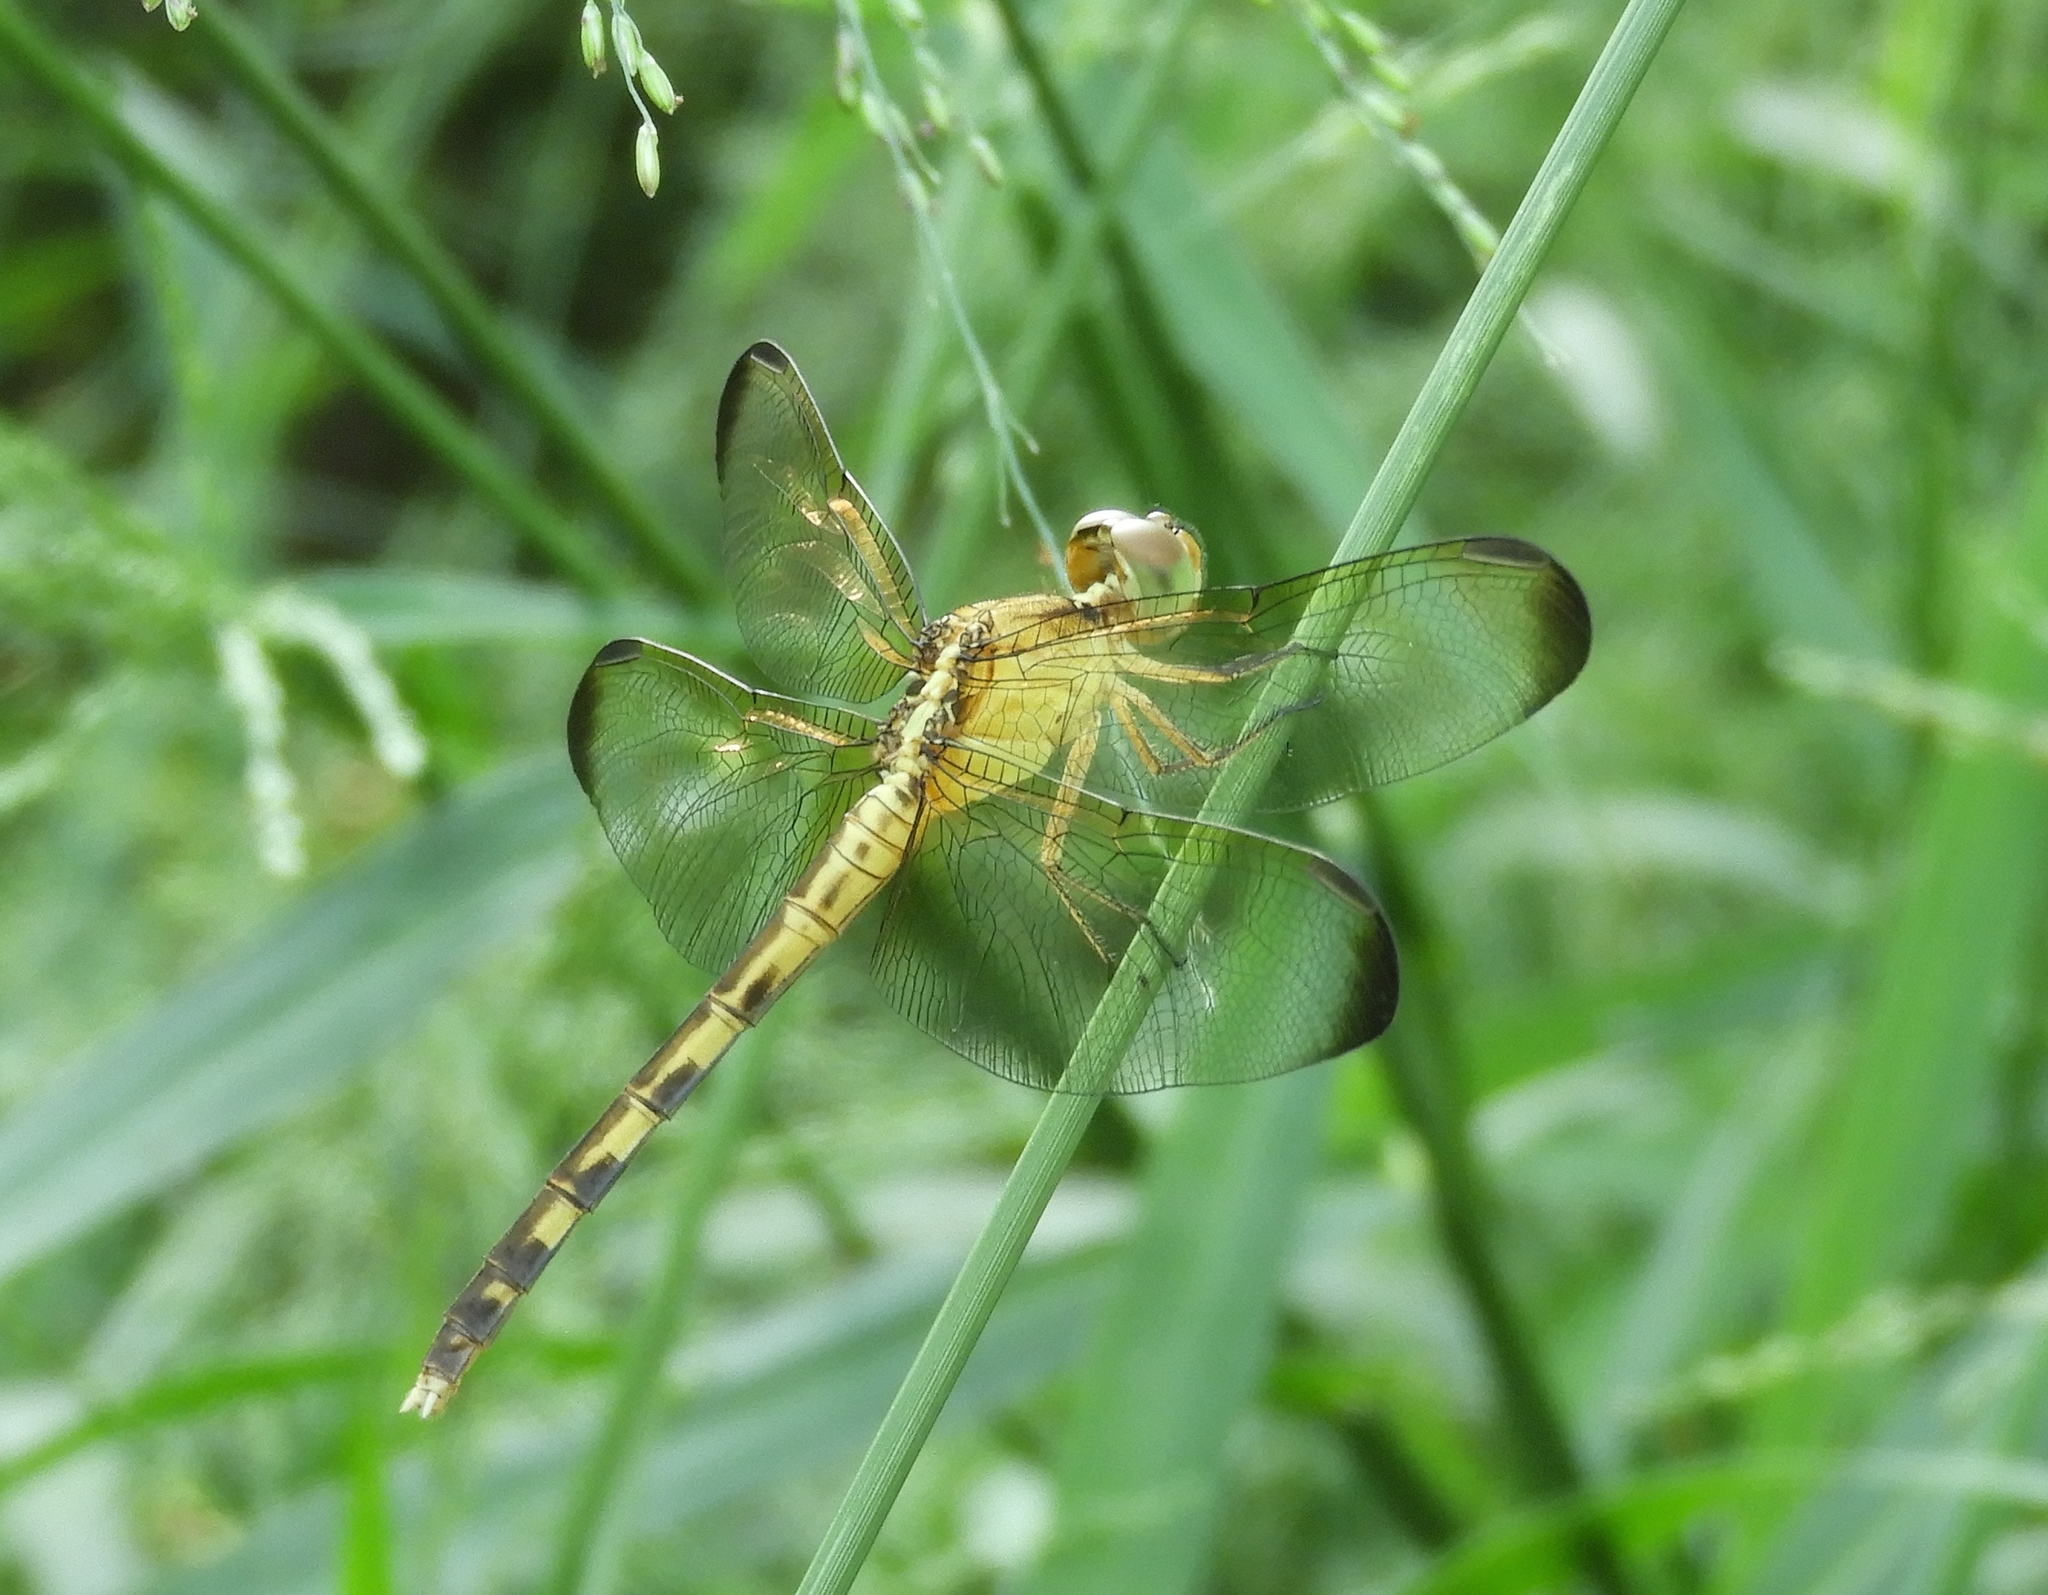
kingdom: Animalia
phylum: Arthropoda
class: Insecta
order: Odonata
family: Libellulidae
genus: Erythrodiplax
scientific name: Erythrodiplax funerea
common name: Black-winged dragonlet
